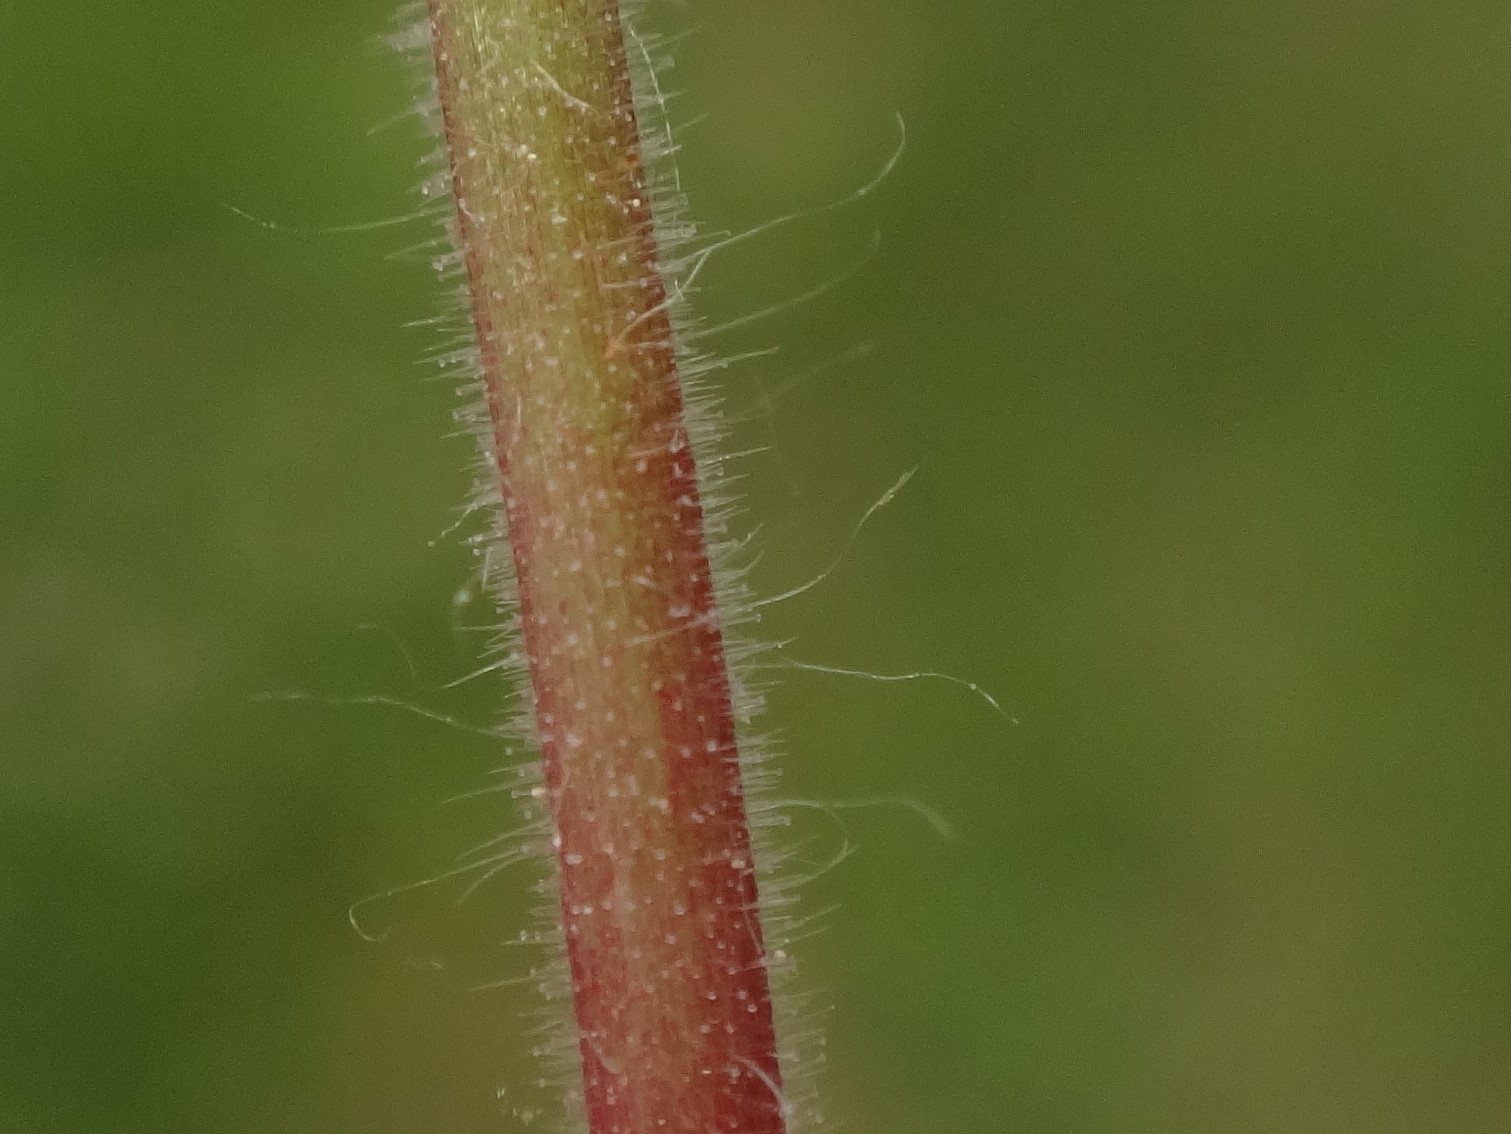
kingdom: Plantae
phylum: Tracheophyta
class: Magnoliopsida
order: Geraniales
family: Geraniaceae
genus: Geranium
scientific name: Geranium molle
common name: Dove's-foot crane's-bill
